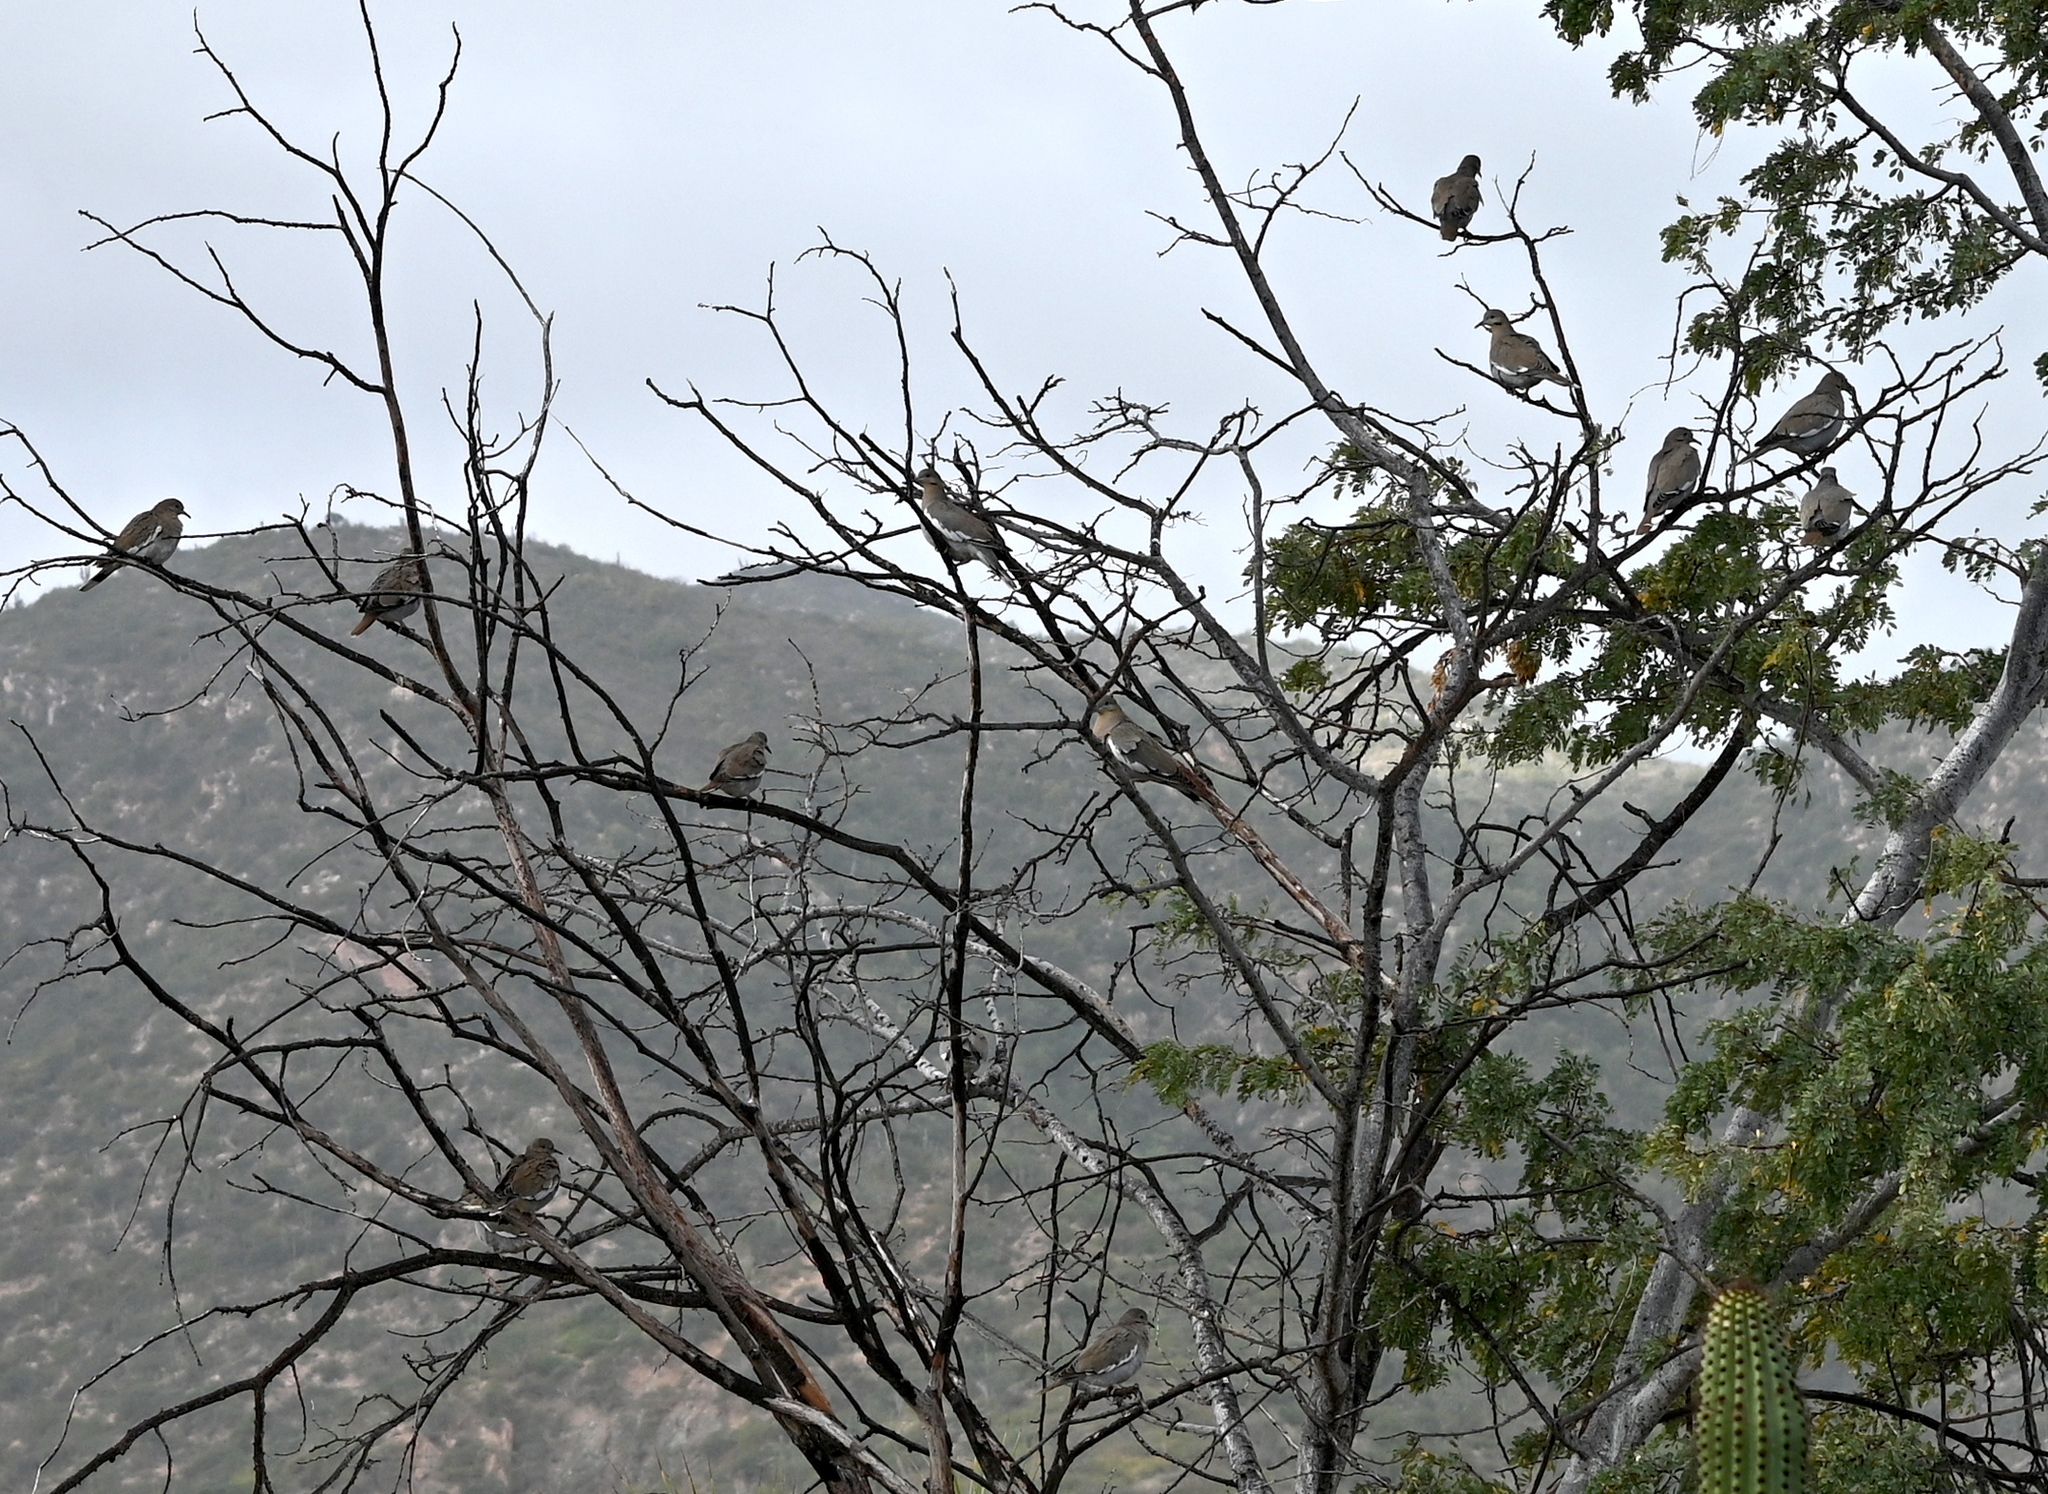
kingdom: Animalia
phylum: Chordata
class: Aves
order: Columbiformes
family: Columbidae
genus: Zenaida
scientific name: Zenaida asiatica
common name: White-winged dove
